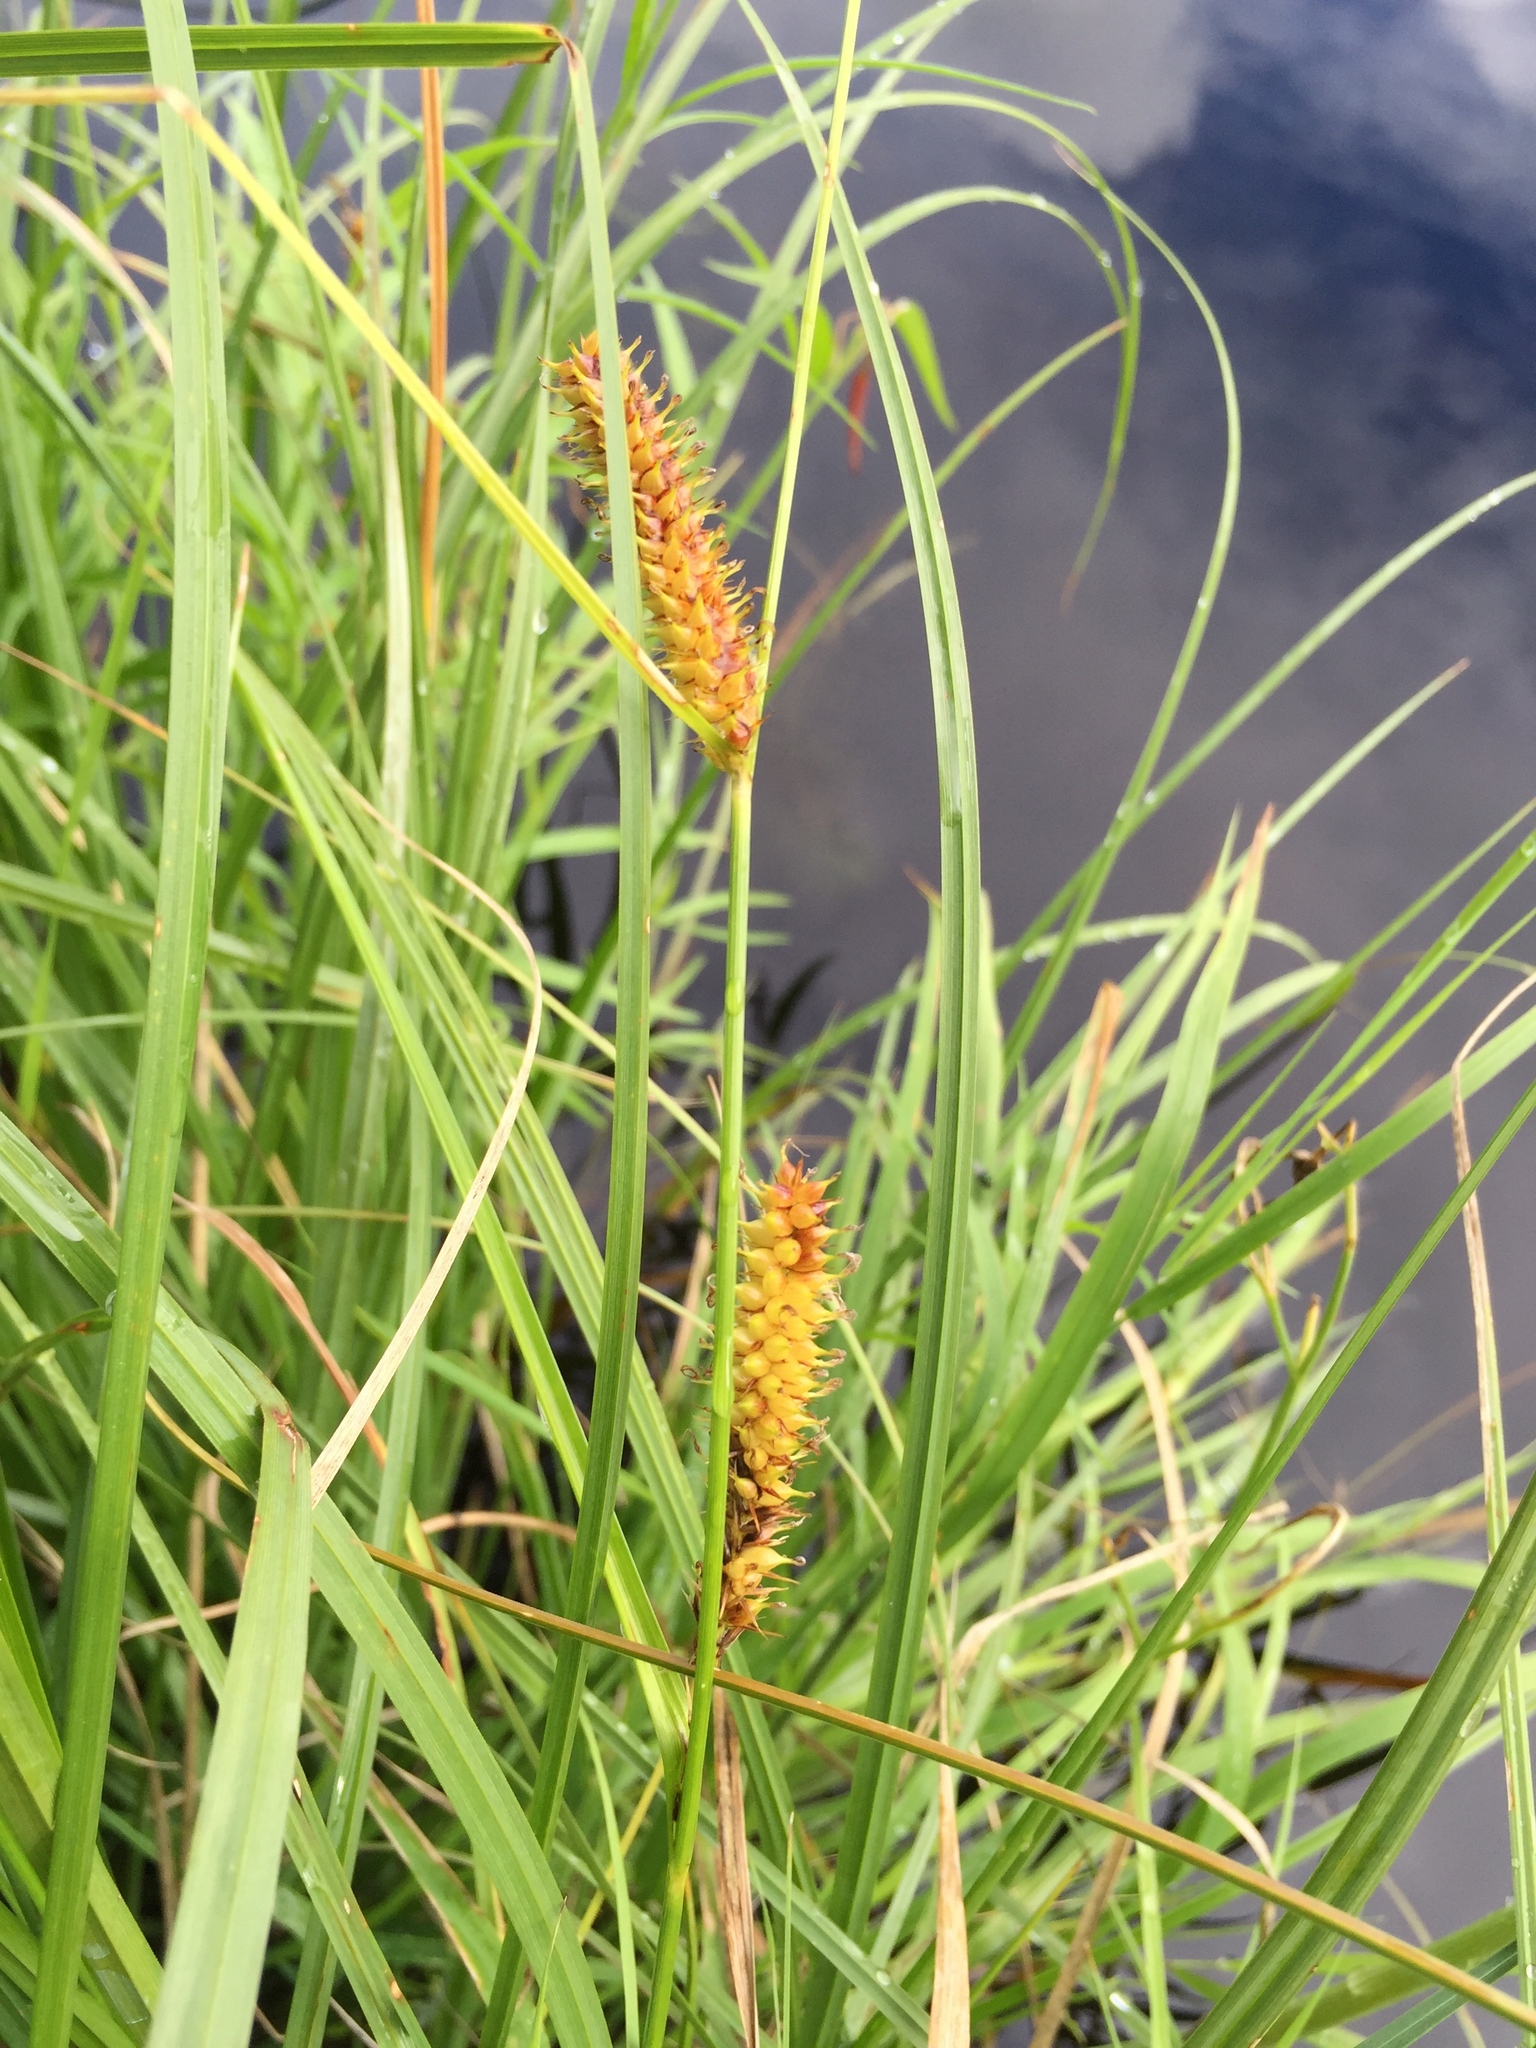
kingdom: Plantae
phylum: Tracheophyta
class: Liliopsida
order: Poales
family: Cyperaceae
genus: Carex
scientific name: Carex utriculata
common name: Beaked sedge
